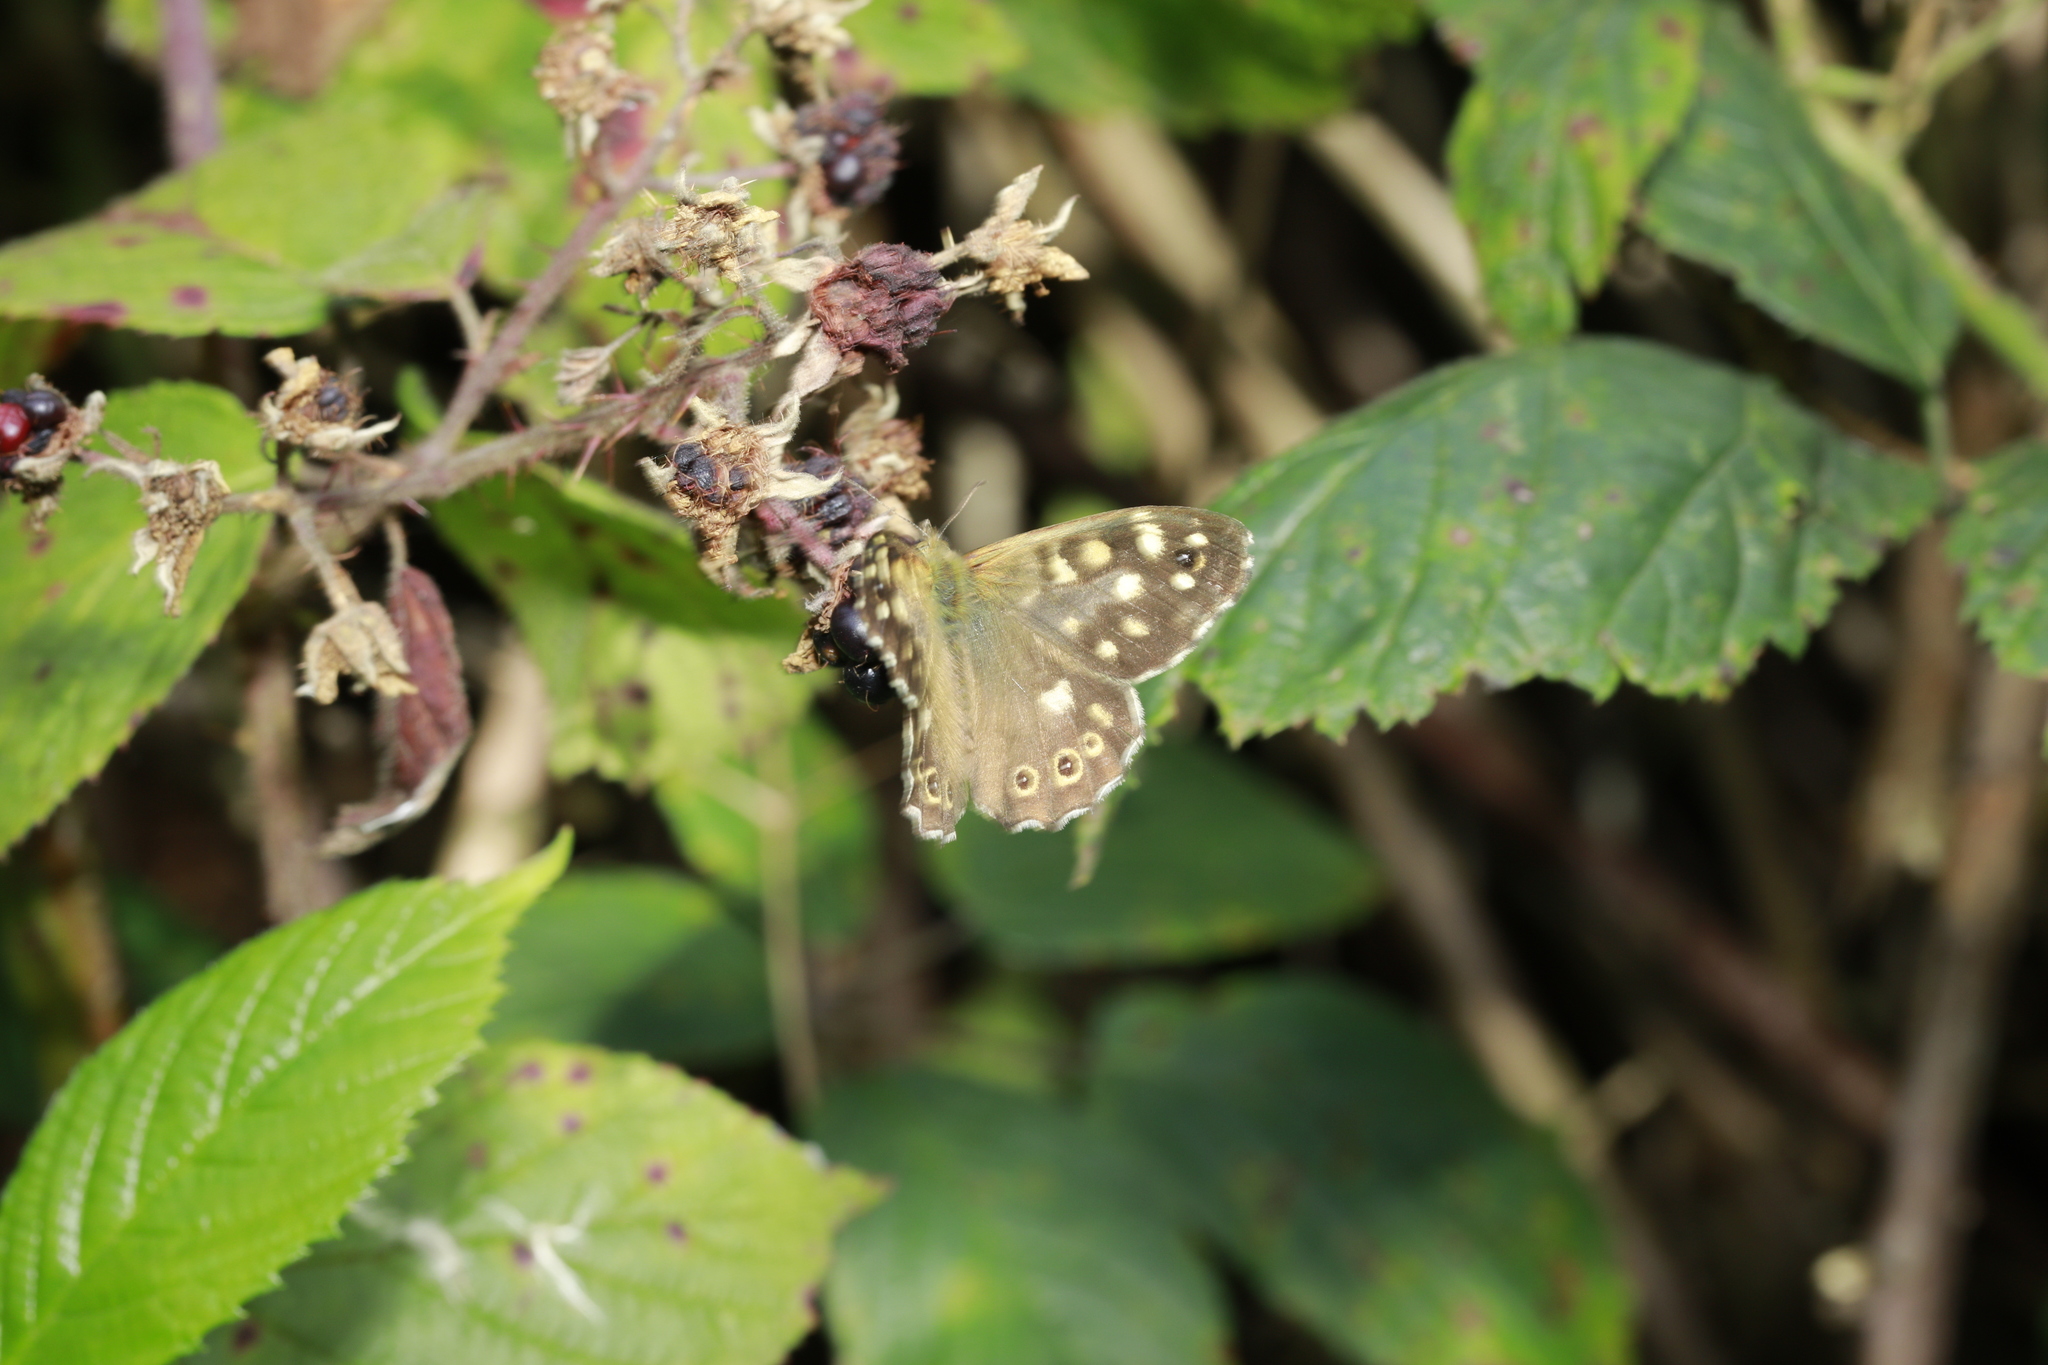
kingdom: Animalia
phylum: Arthropoda
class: Insecta
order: Lepidoptera
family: Nymphalidae
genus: Pararge
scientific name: Pararge aegeria
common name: Speckled wood
